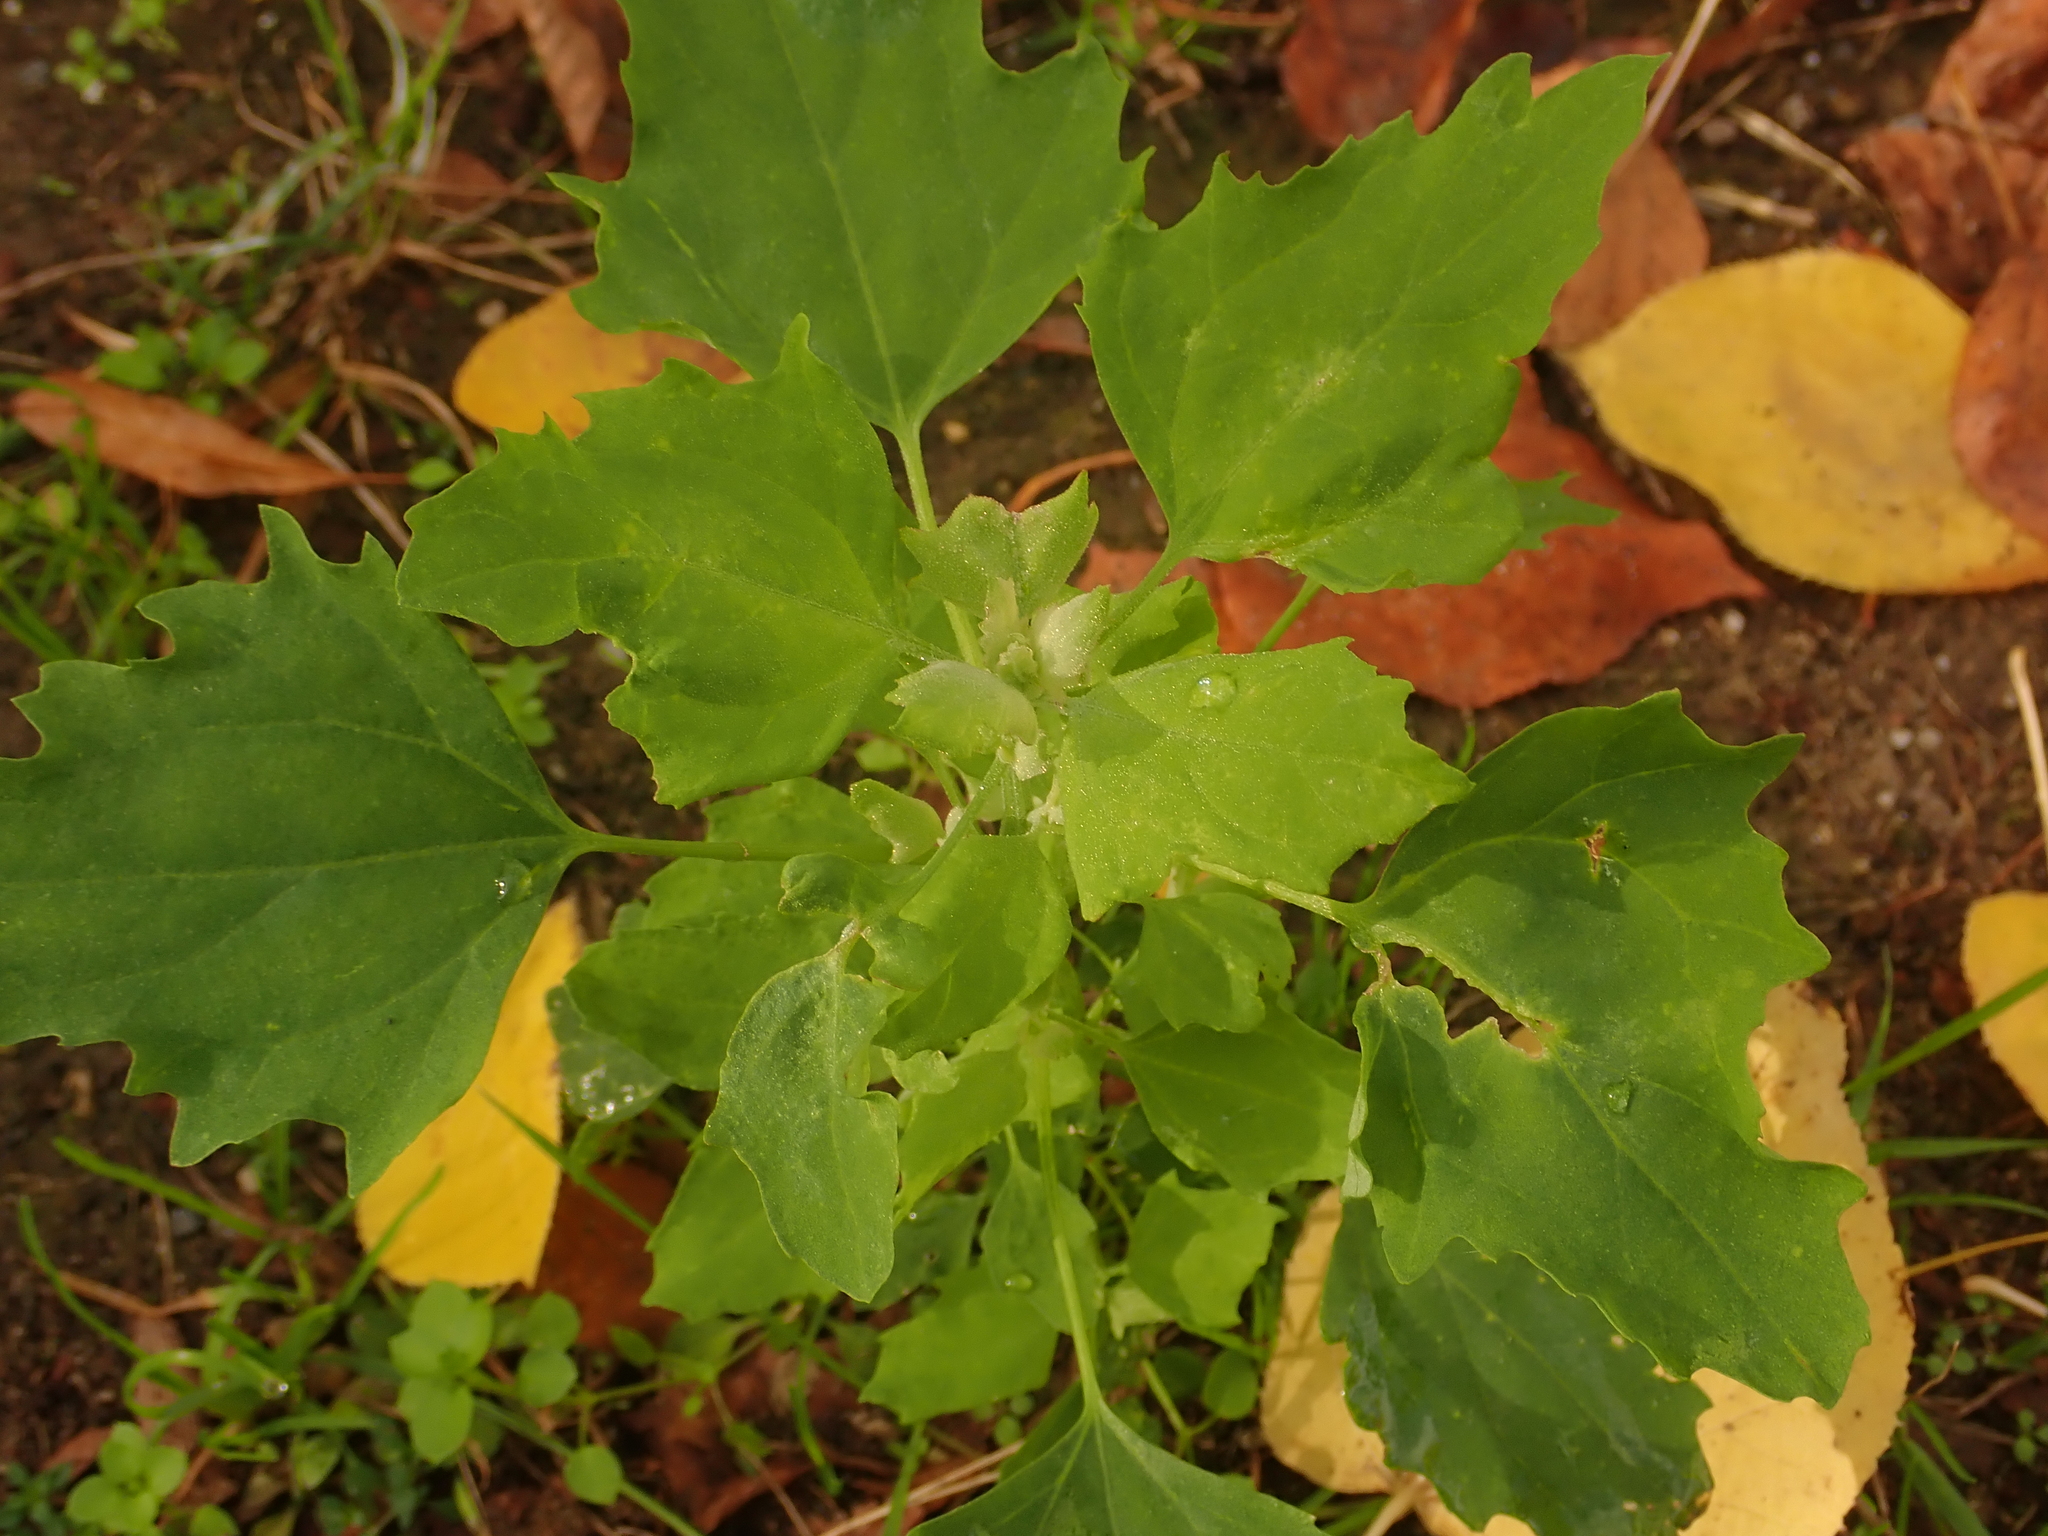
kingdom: Plantae
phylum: Tracheophyta
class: Magnoliopsida
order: Caryophyllales
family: Amaranthaceae
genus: Chenopodium
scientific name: Chenopodium album
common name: Fat-hen
